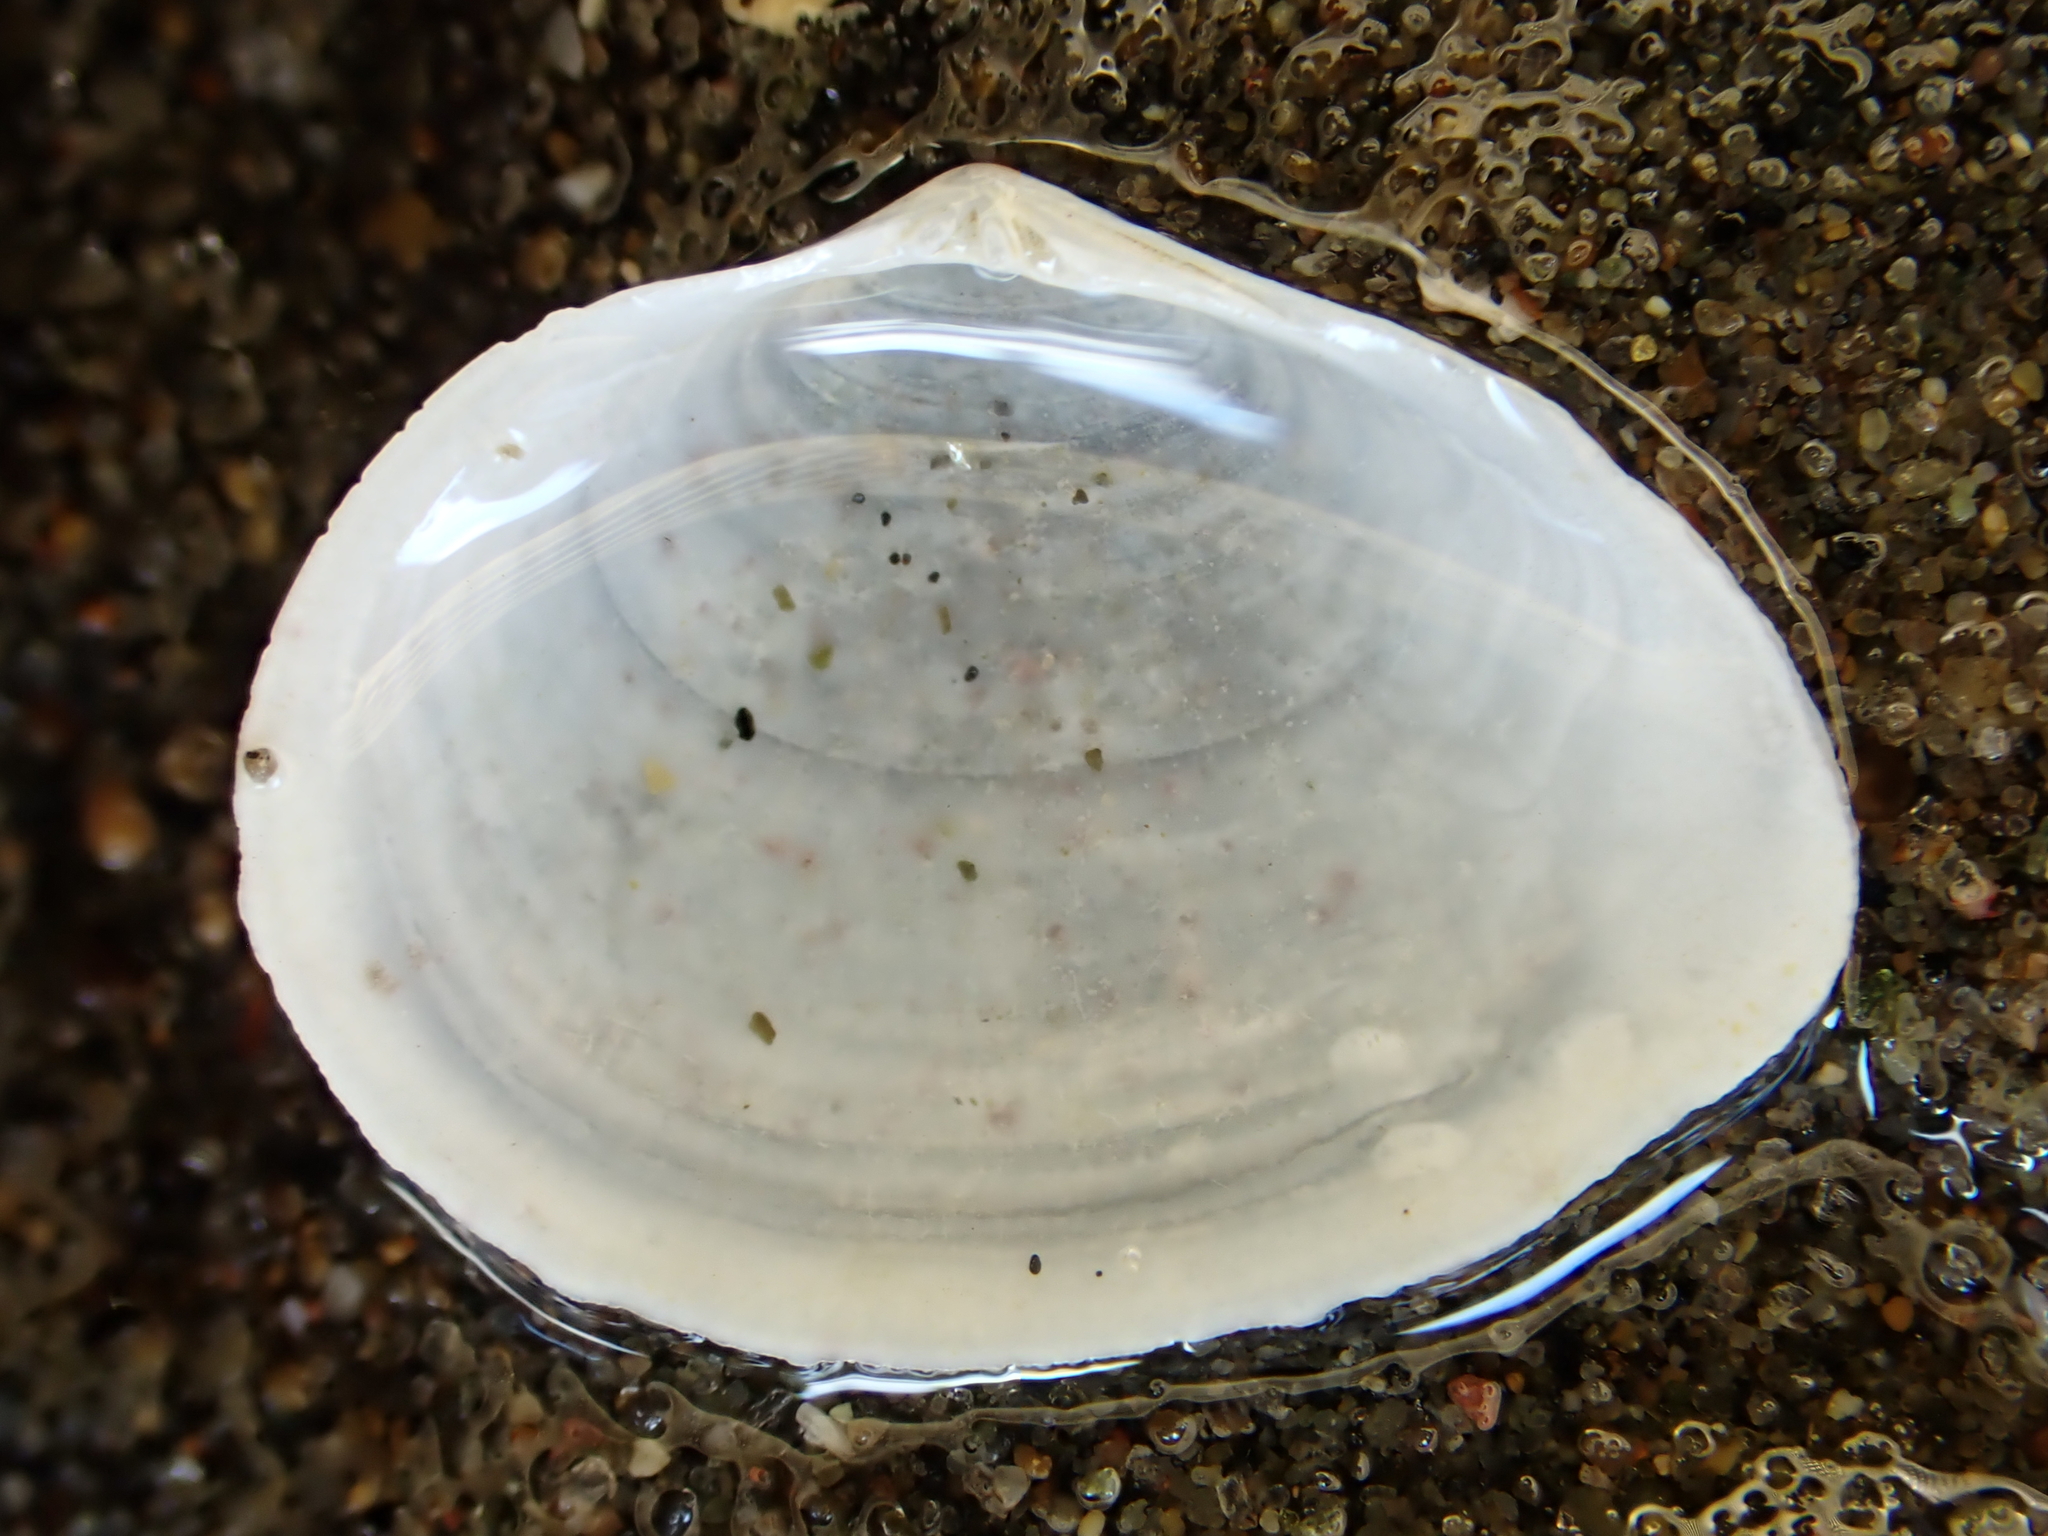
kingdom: Animalia
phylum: Mollusca
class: Bivalvia
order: Cardiida
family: Semelidae
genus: Leptomya
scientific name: Leptomya retiaria
